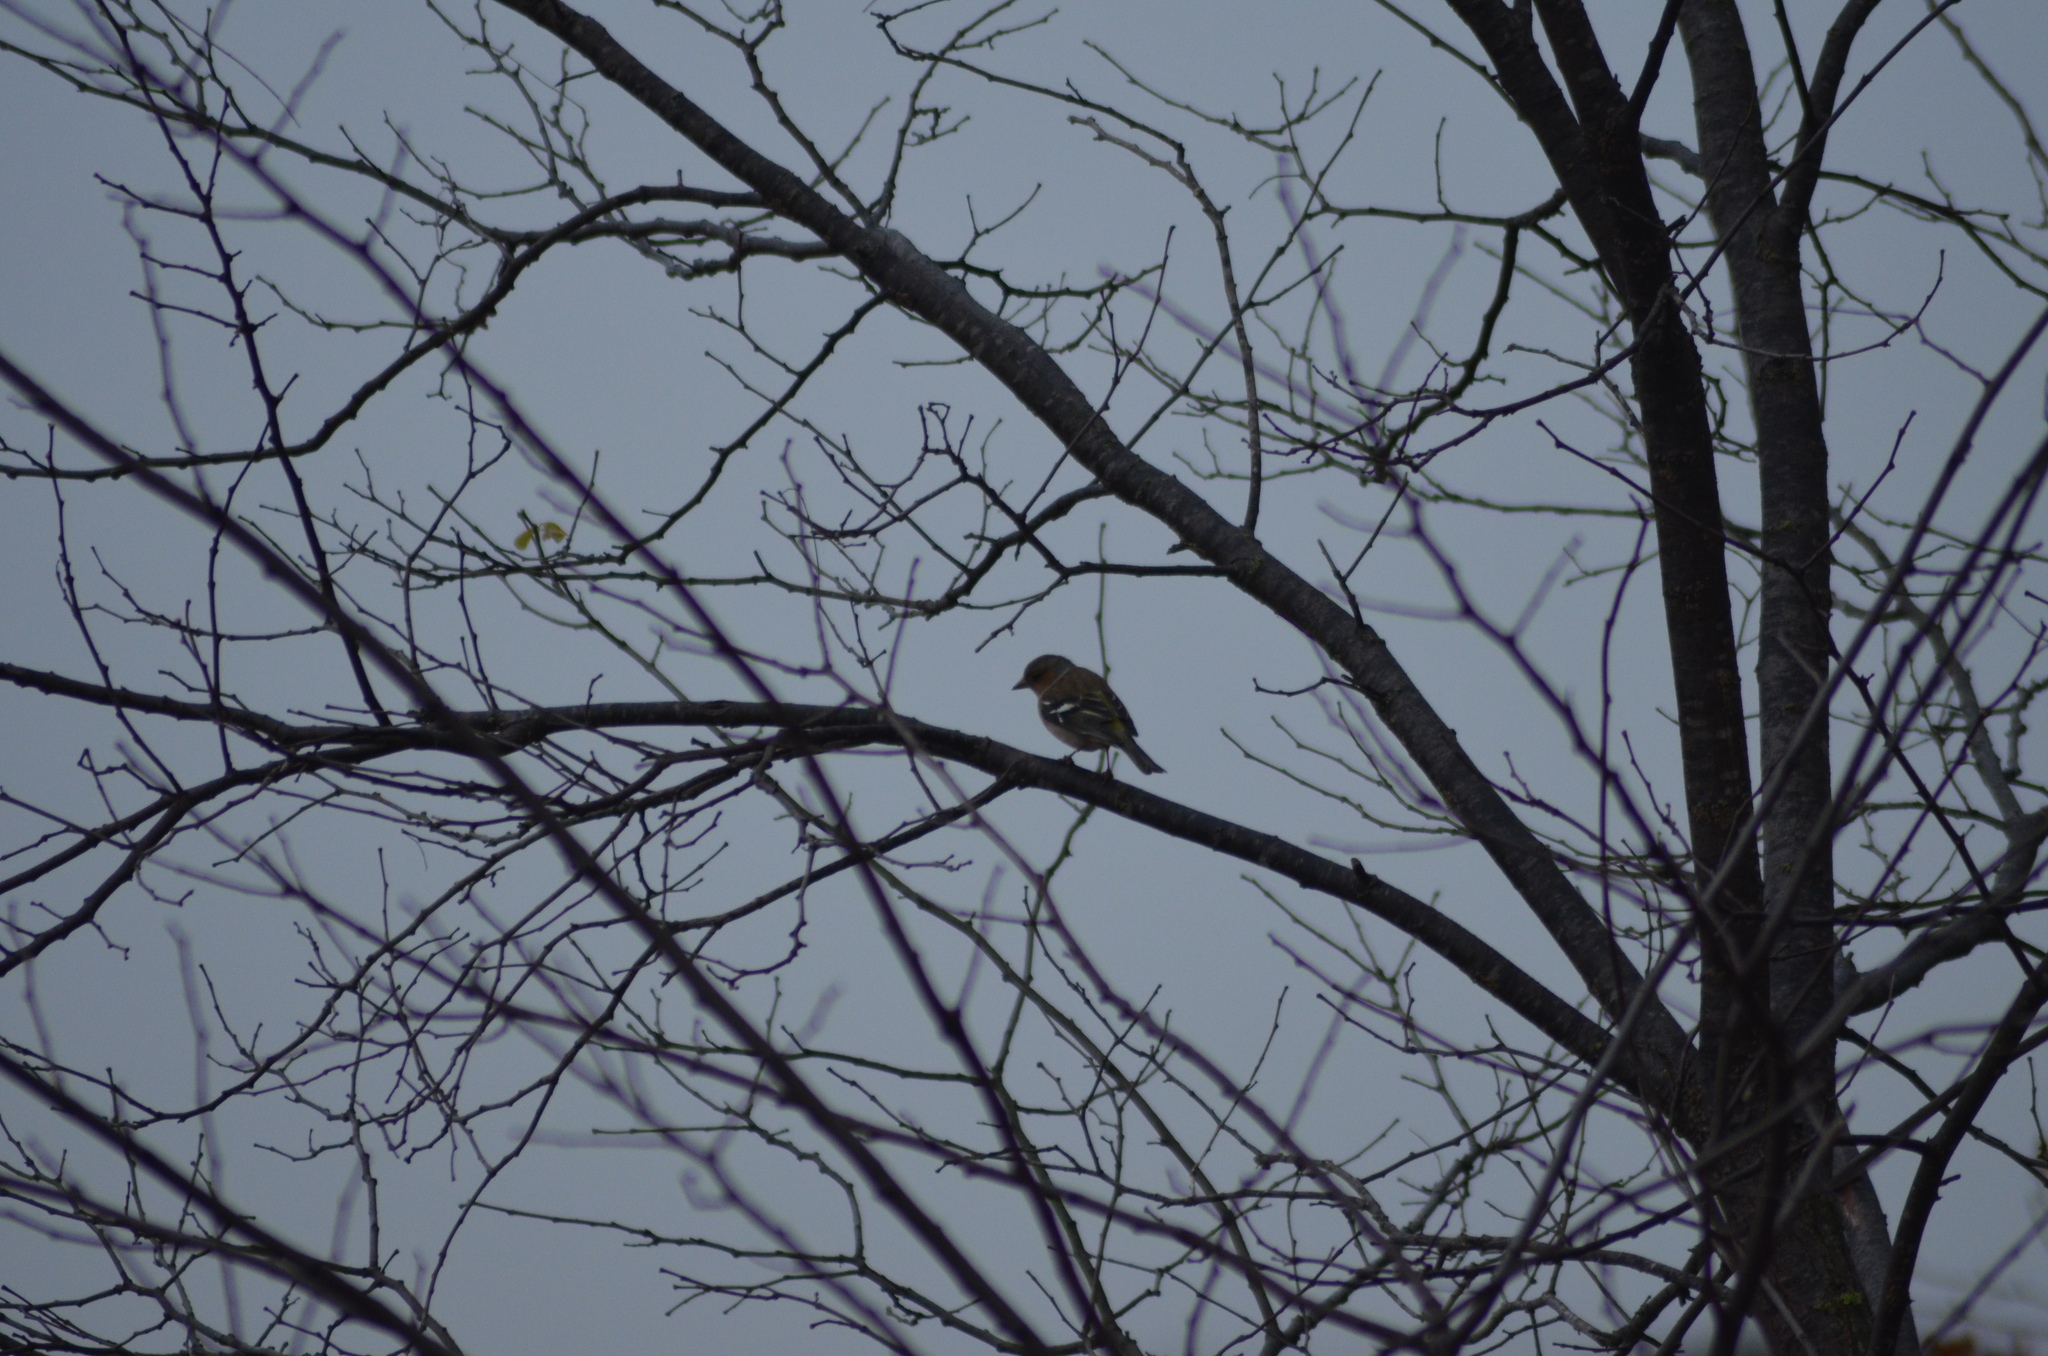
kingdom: Animalia
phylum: Chordata
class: Aves
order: Passeriformes
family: Fringillidae
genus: Fringilla
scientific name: Fringilla coelebs
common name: Common chaffinch
